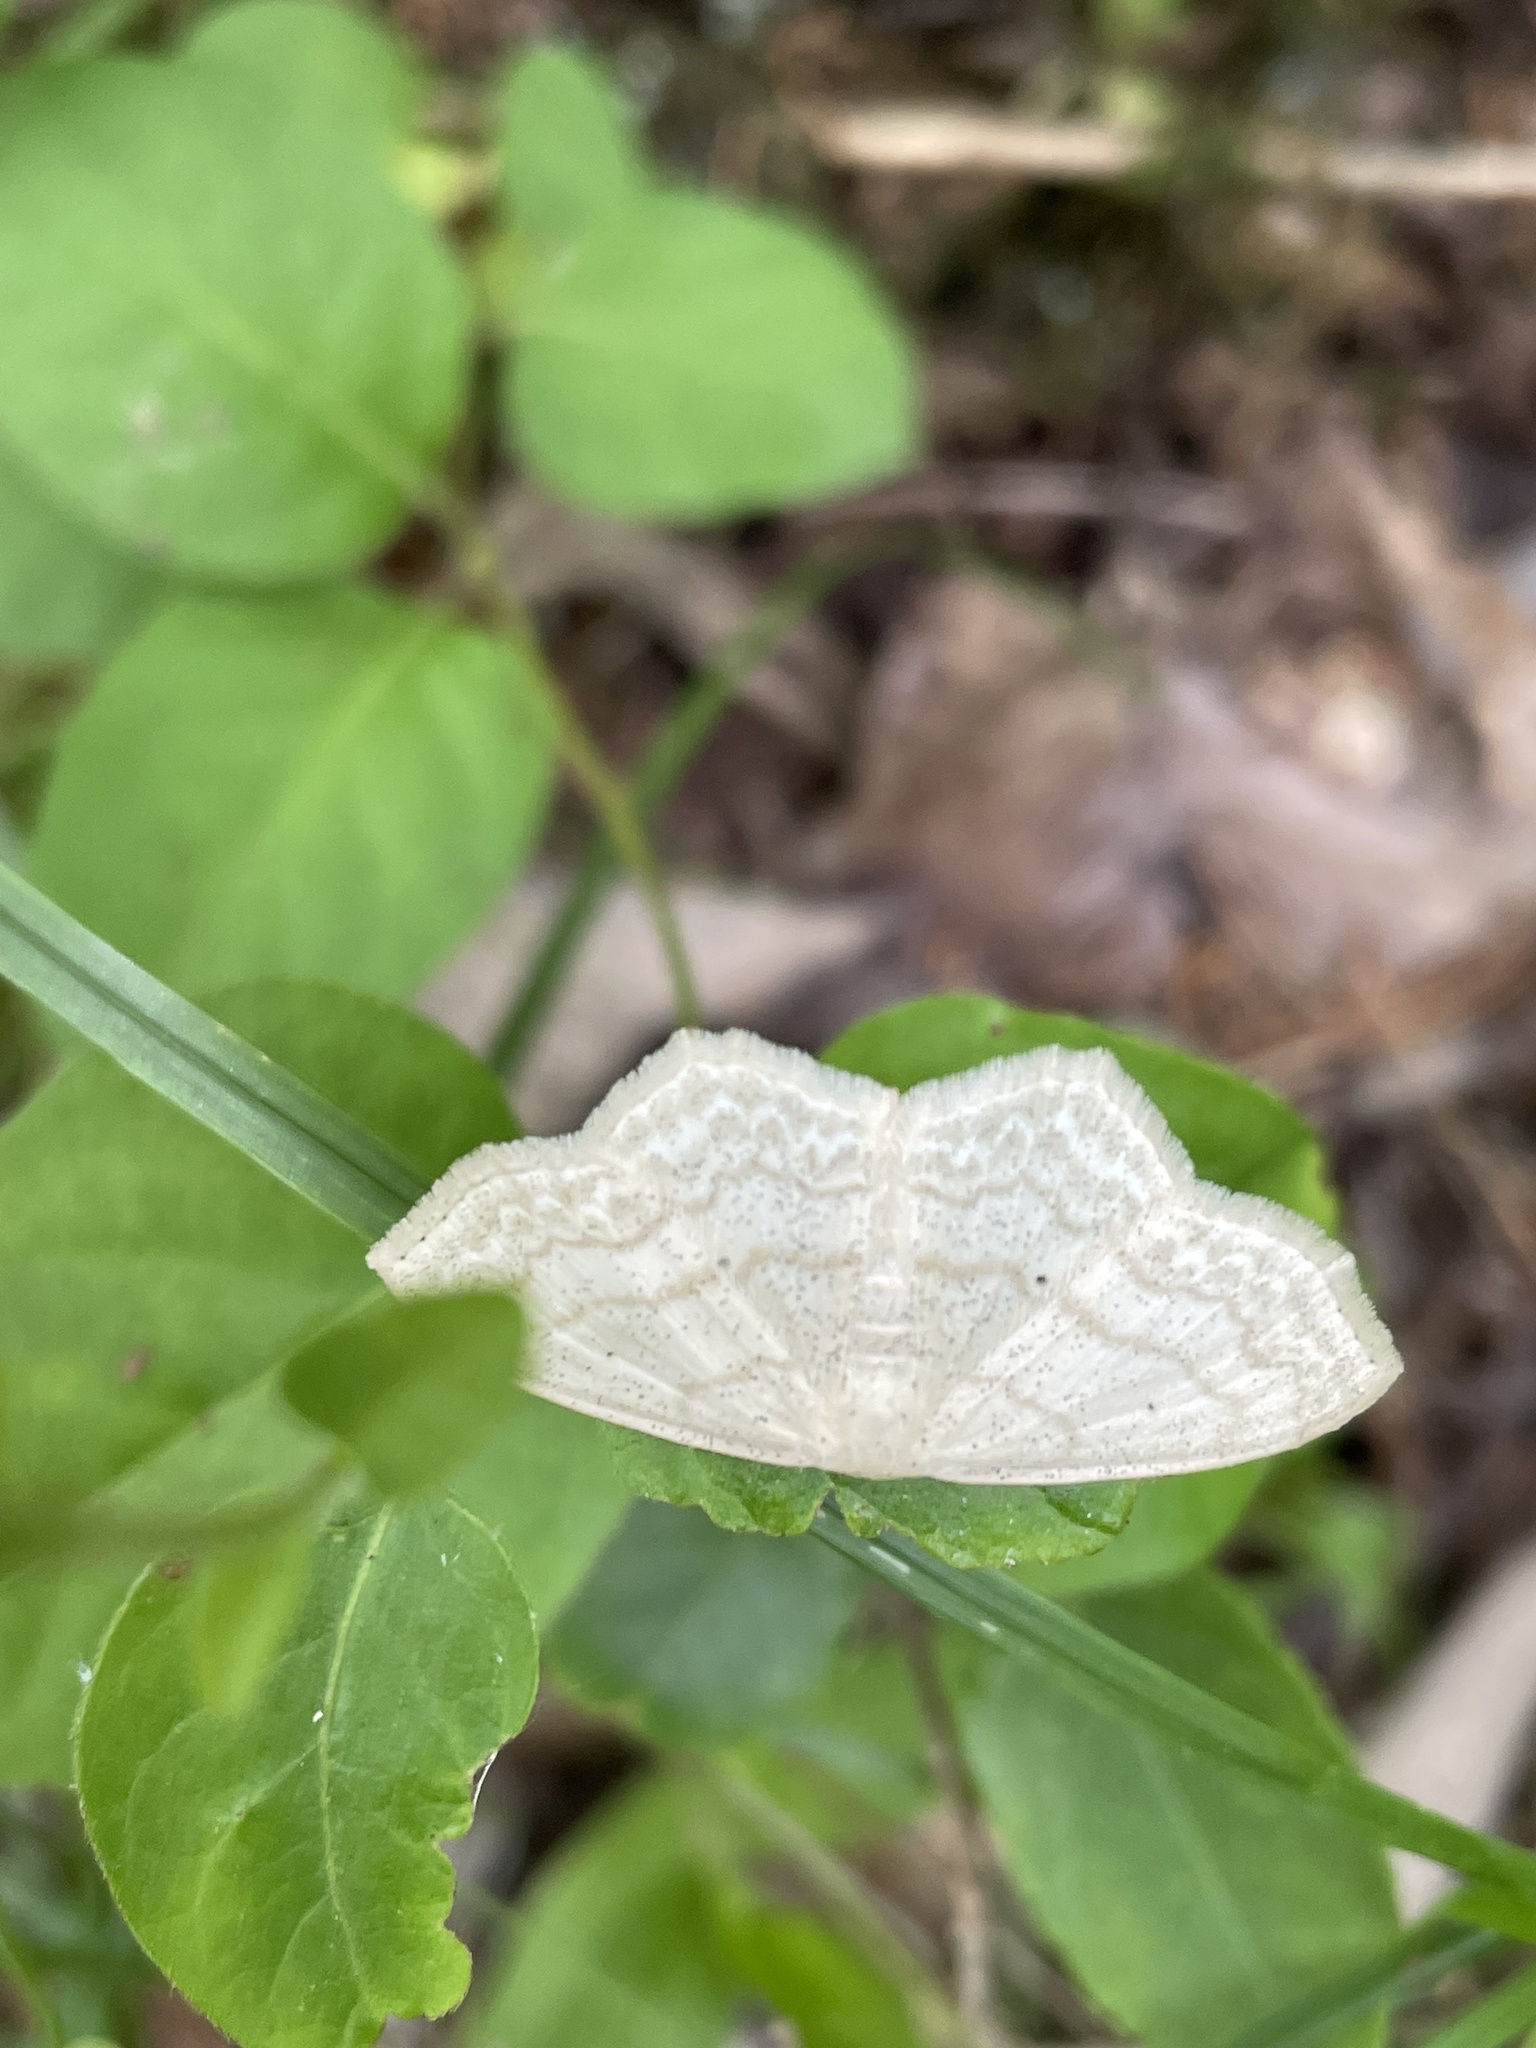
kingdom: Animalia
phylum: Arthropoda
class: Insecta
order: Lepidoptera
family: Geometridae
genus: Scopula
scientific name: Scopula limboundata
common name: Large lace border
